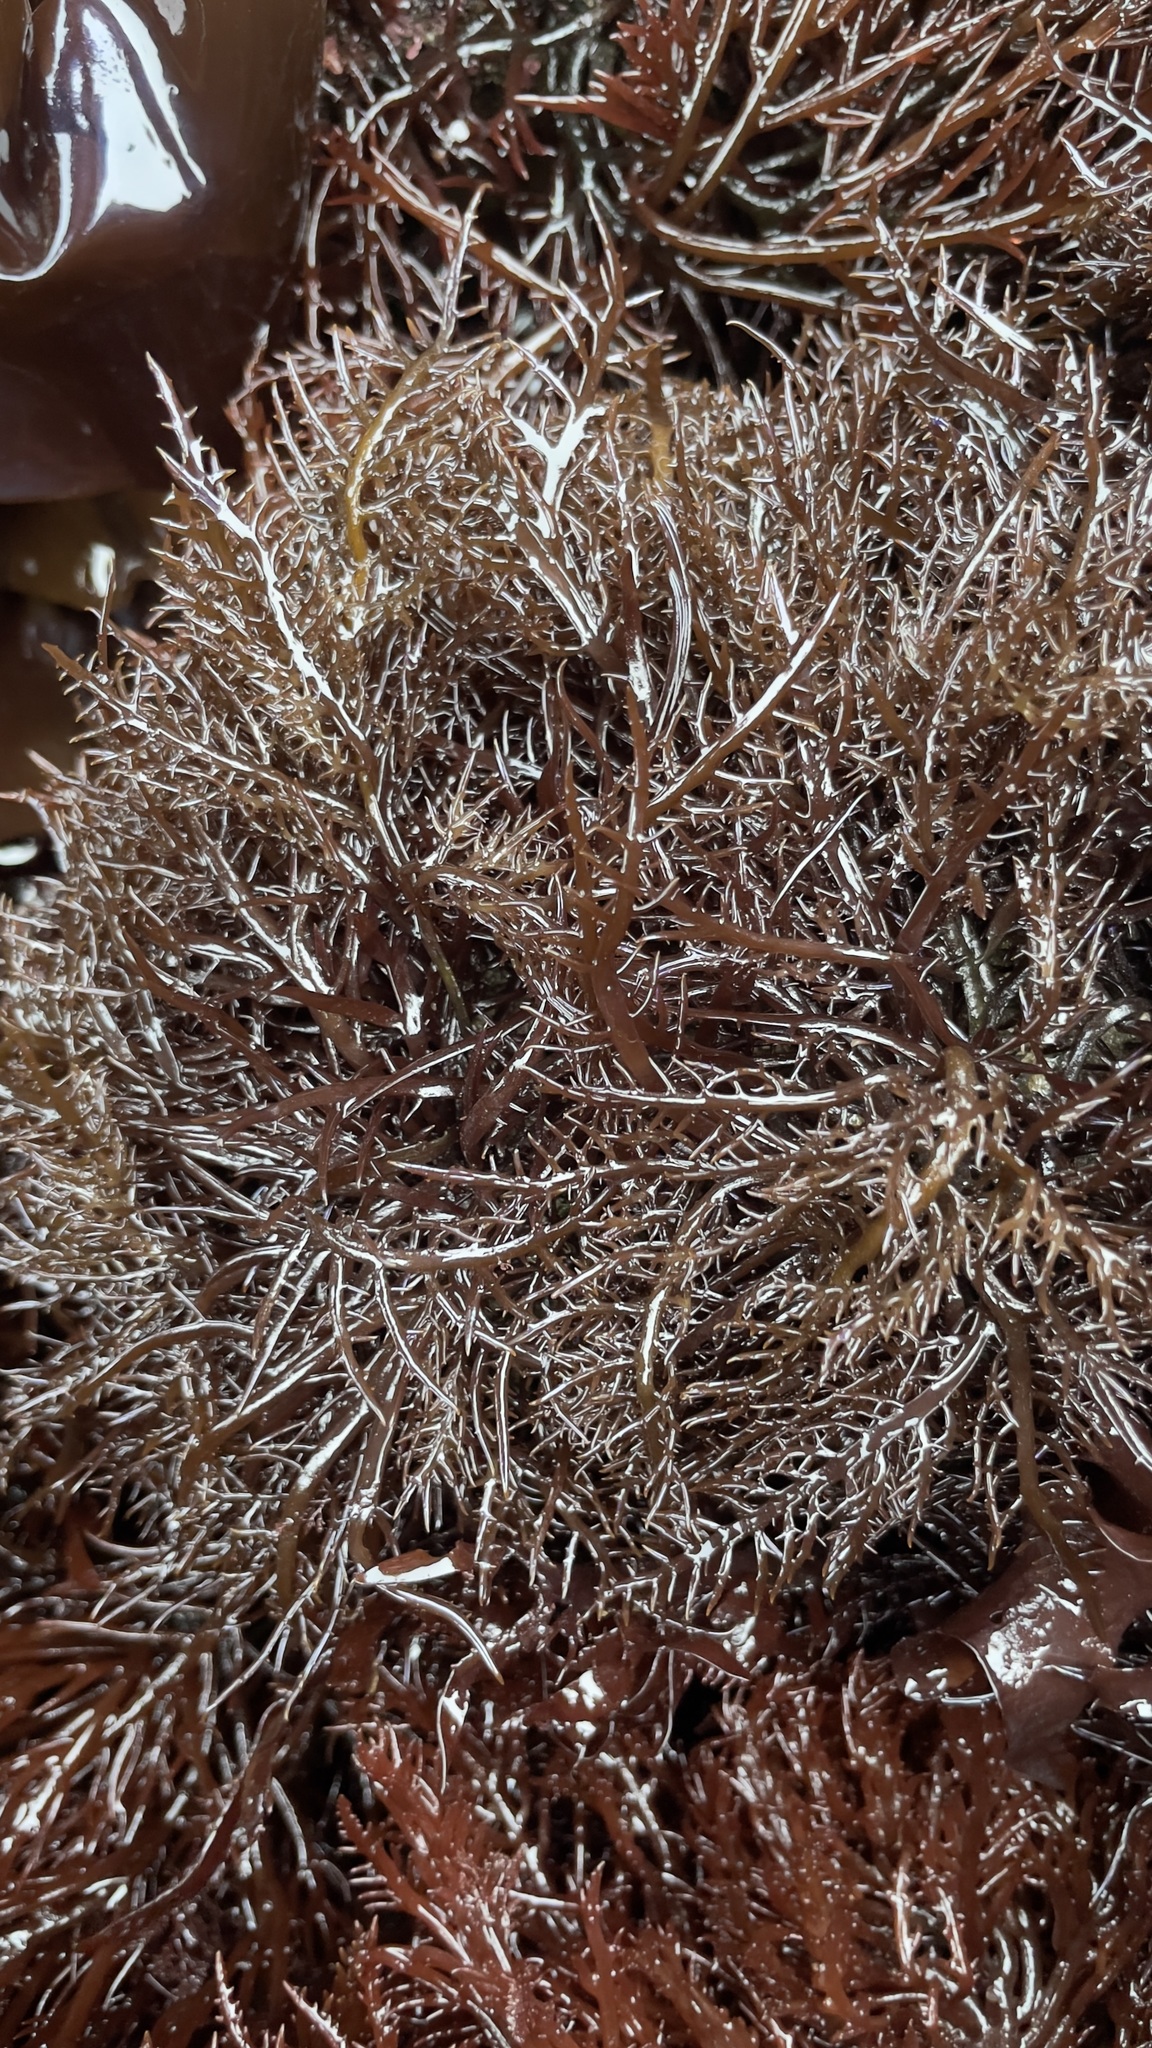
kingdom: Plantae
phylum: Rhodophyta
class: Florideophyceae
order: Gigartinales
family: Gigartinaceae
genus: Chondracanthus
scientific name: Chondracanthus canaliculatus
